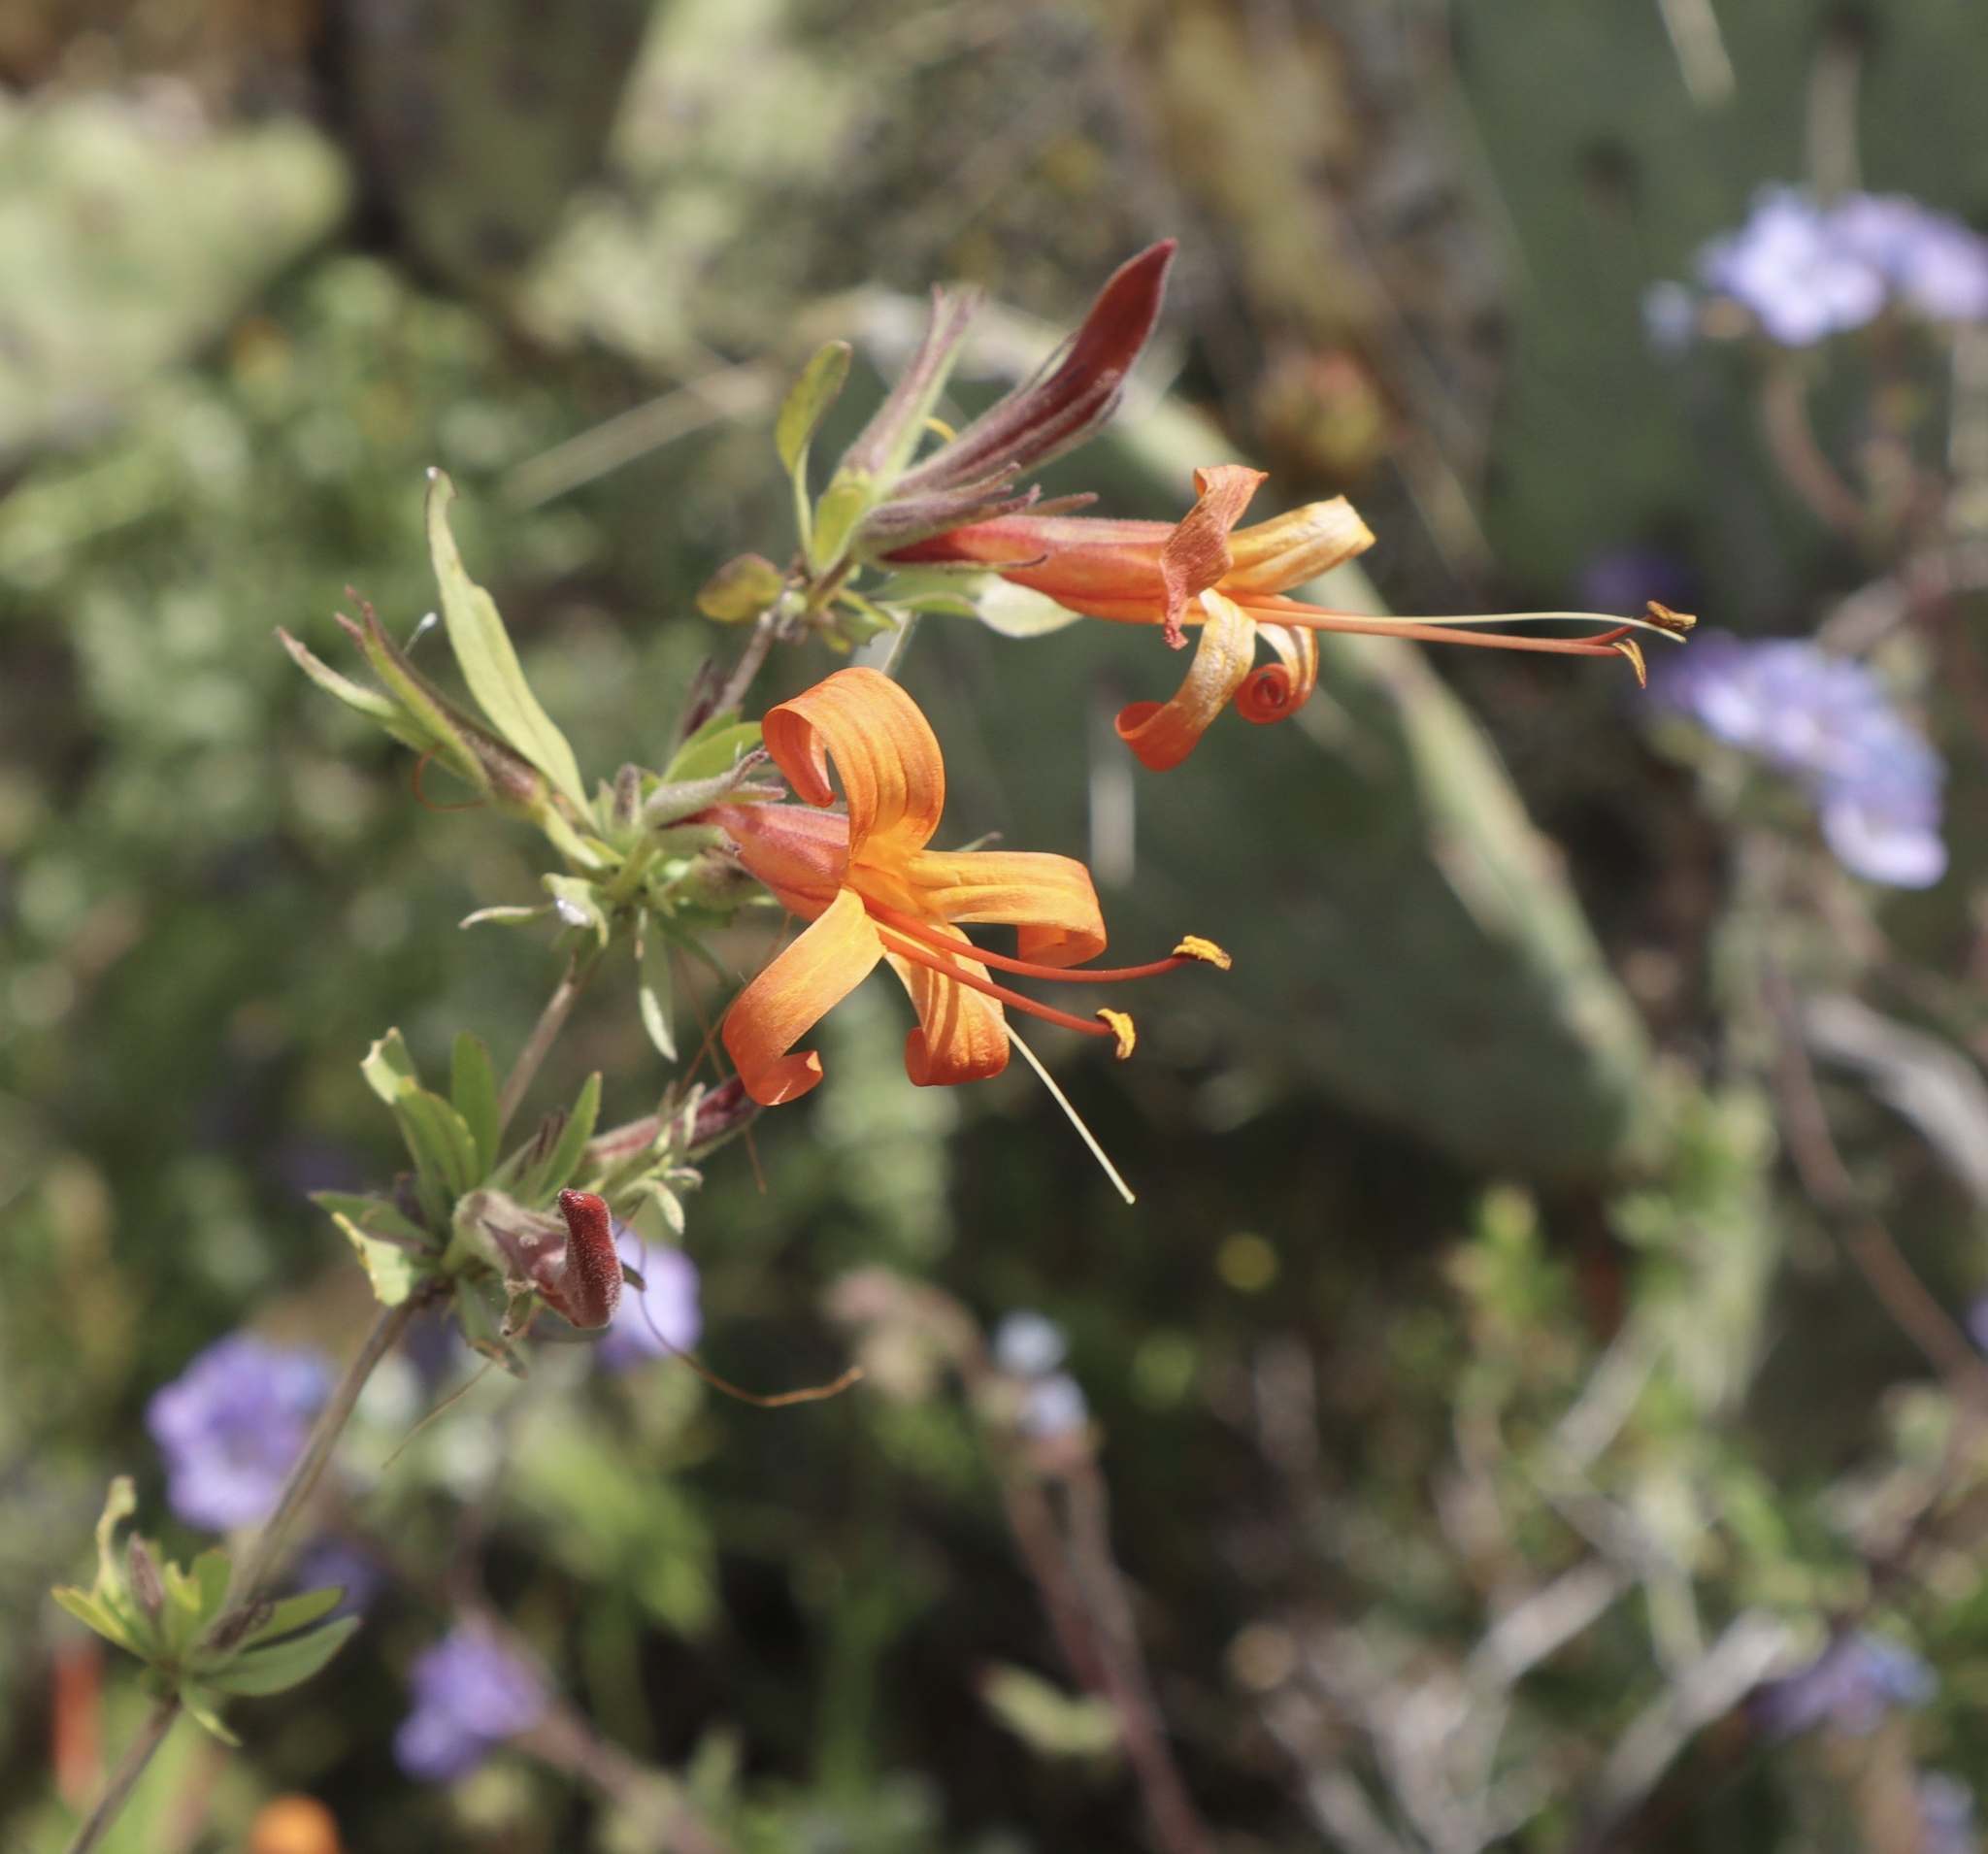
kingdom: Plantae
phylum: Tracheophyta
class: Magnoliopsida
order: Lamiales
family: Acanthaceae
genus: Anisacanthus
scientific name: Anisacanthus thurberi
